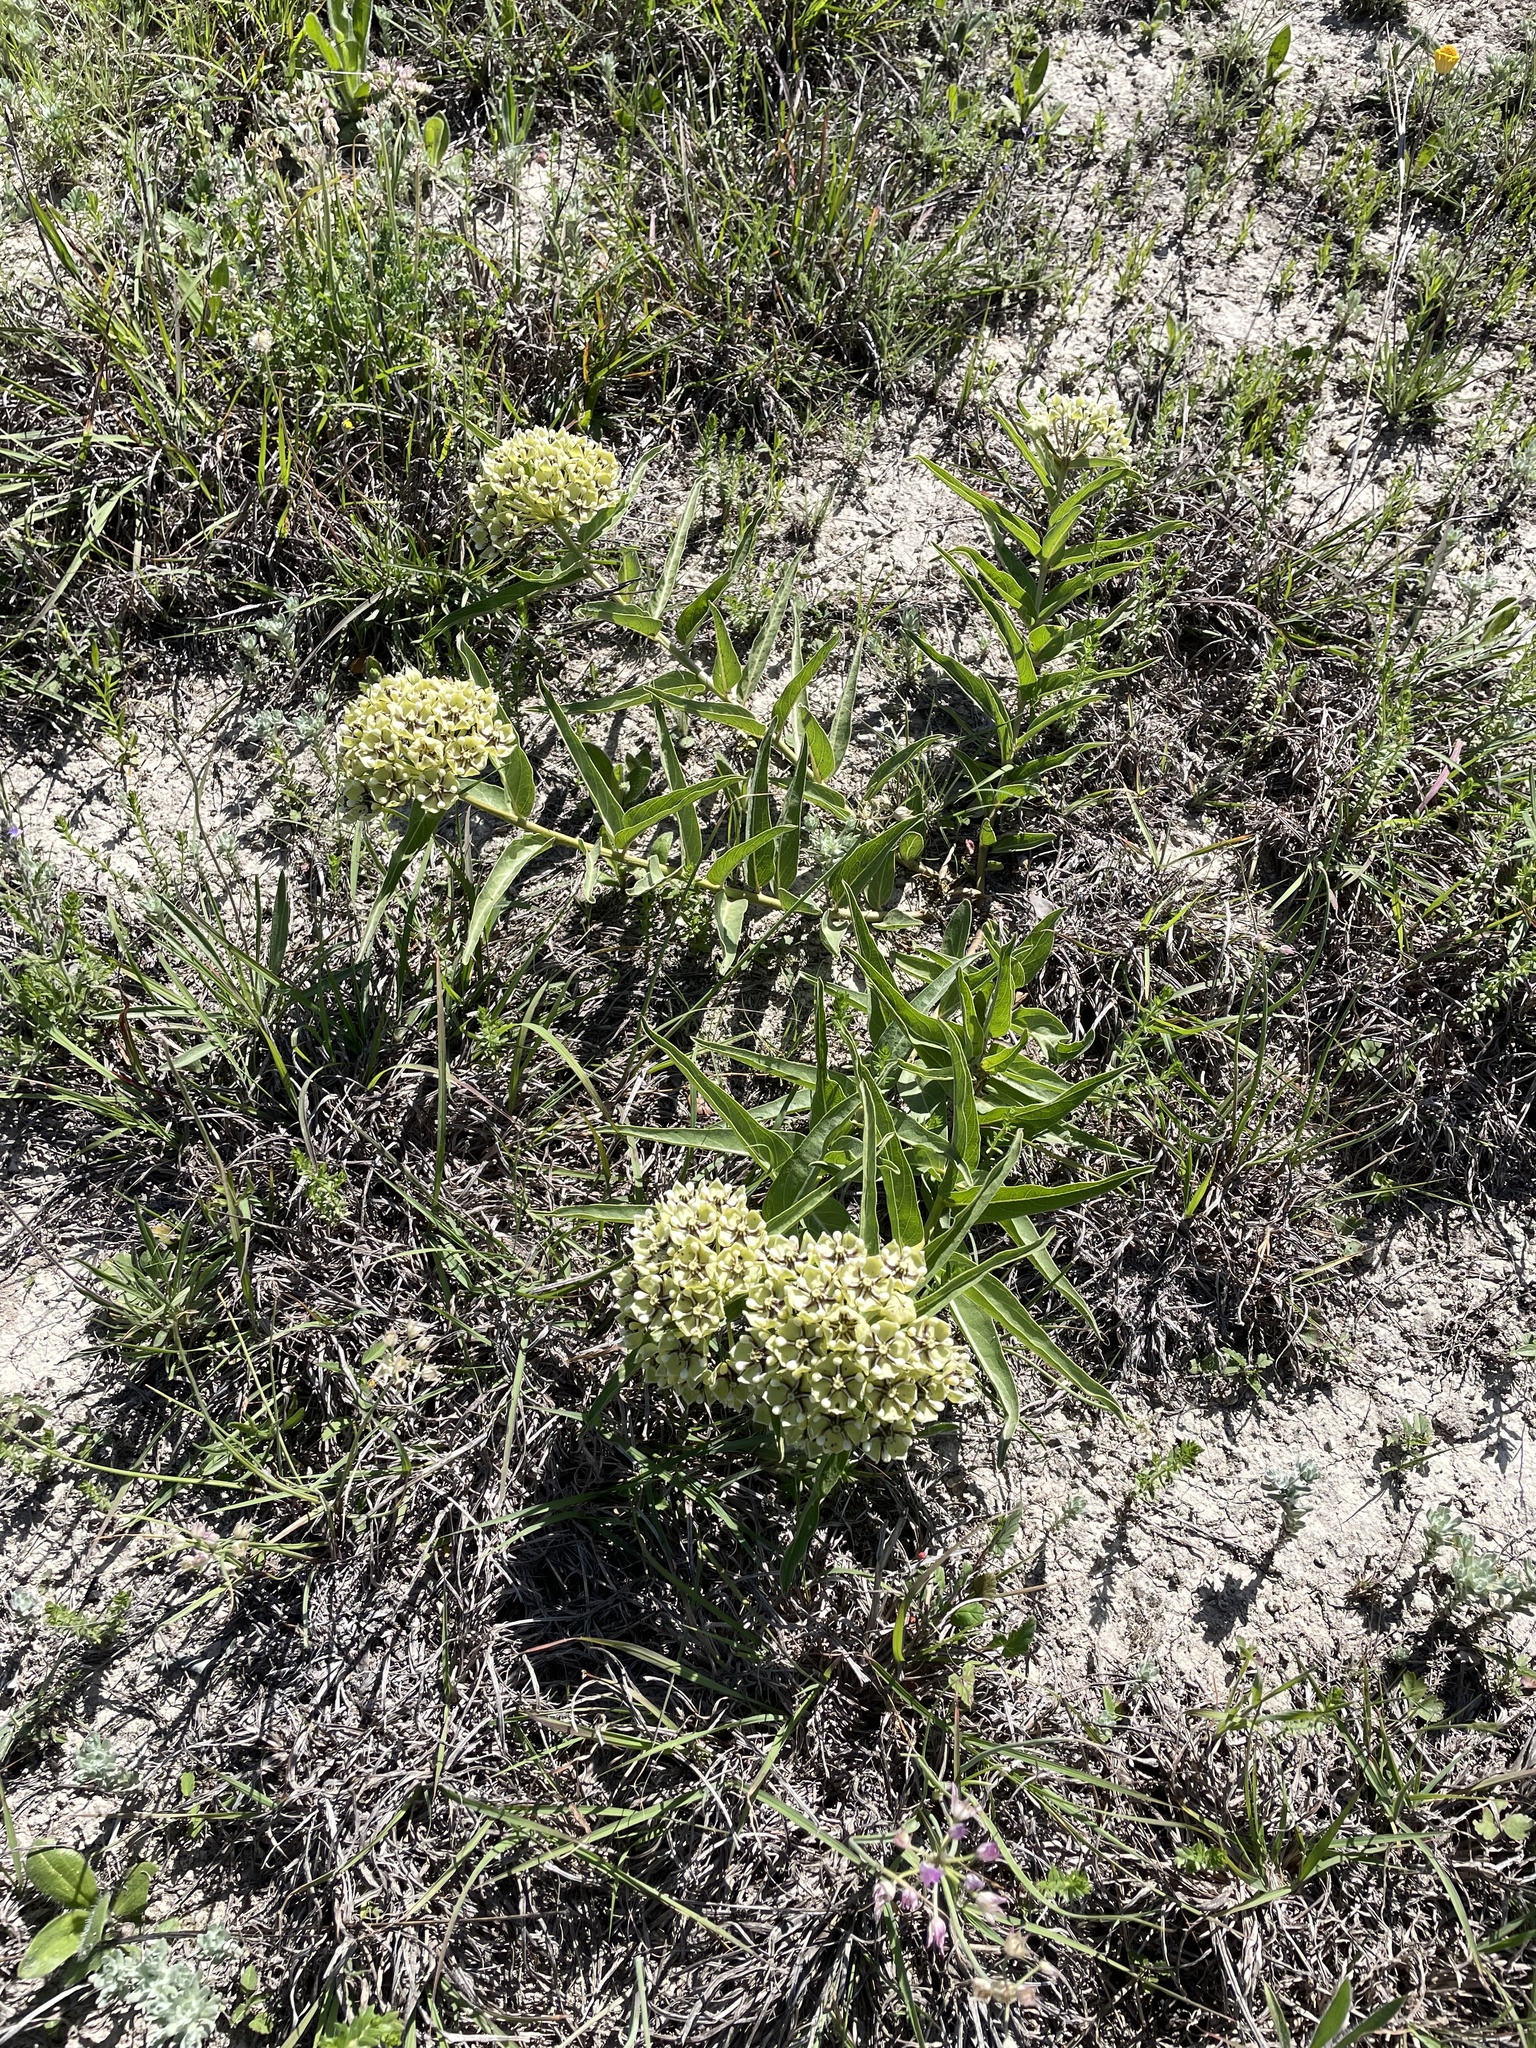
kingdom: Plantae
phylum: Tracheophyta
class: Magnoliopsida
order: Gentianales
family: Apocynaceae
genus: Asclepias
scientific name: Asclepias asperula
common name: Antelope horns
